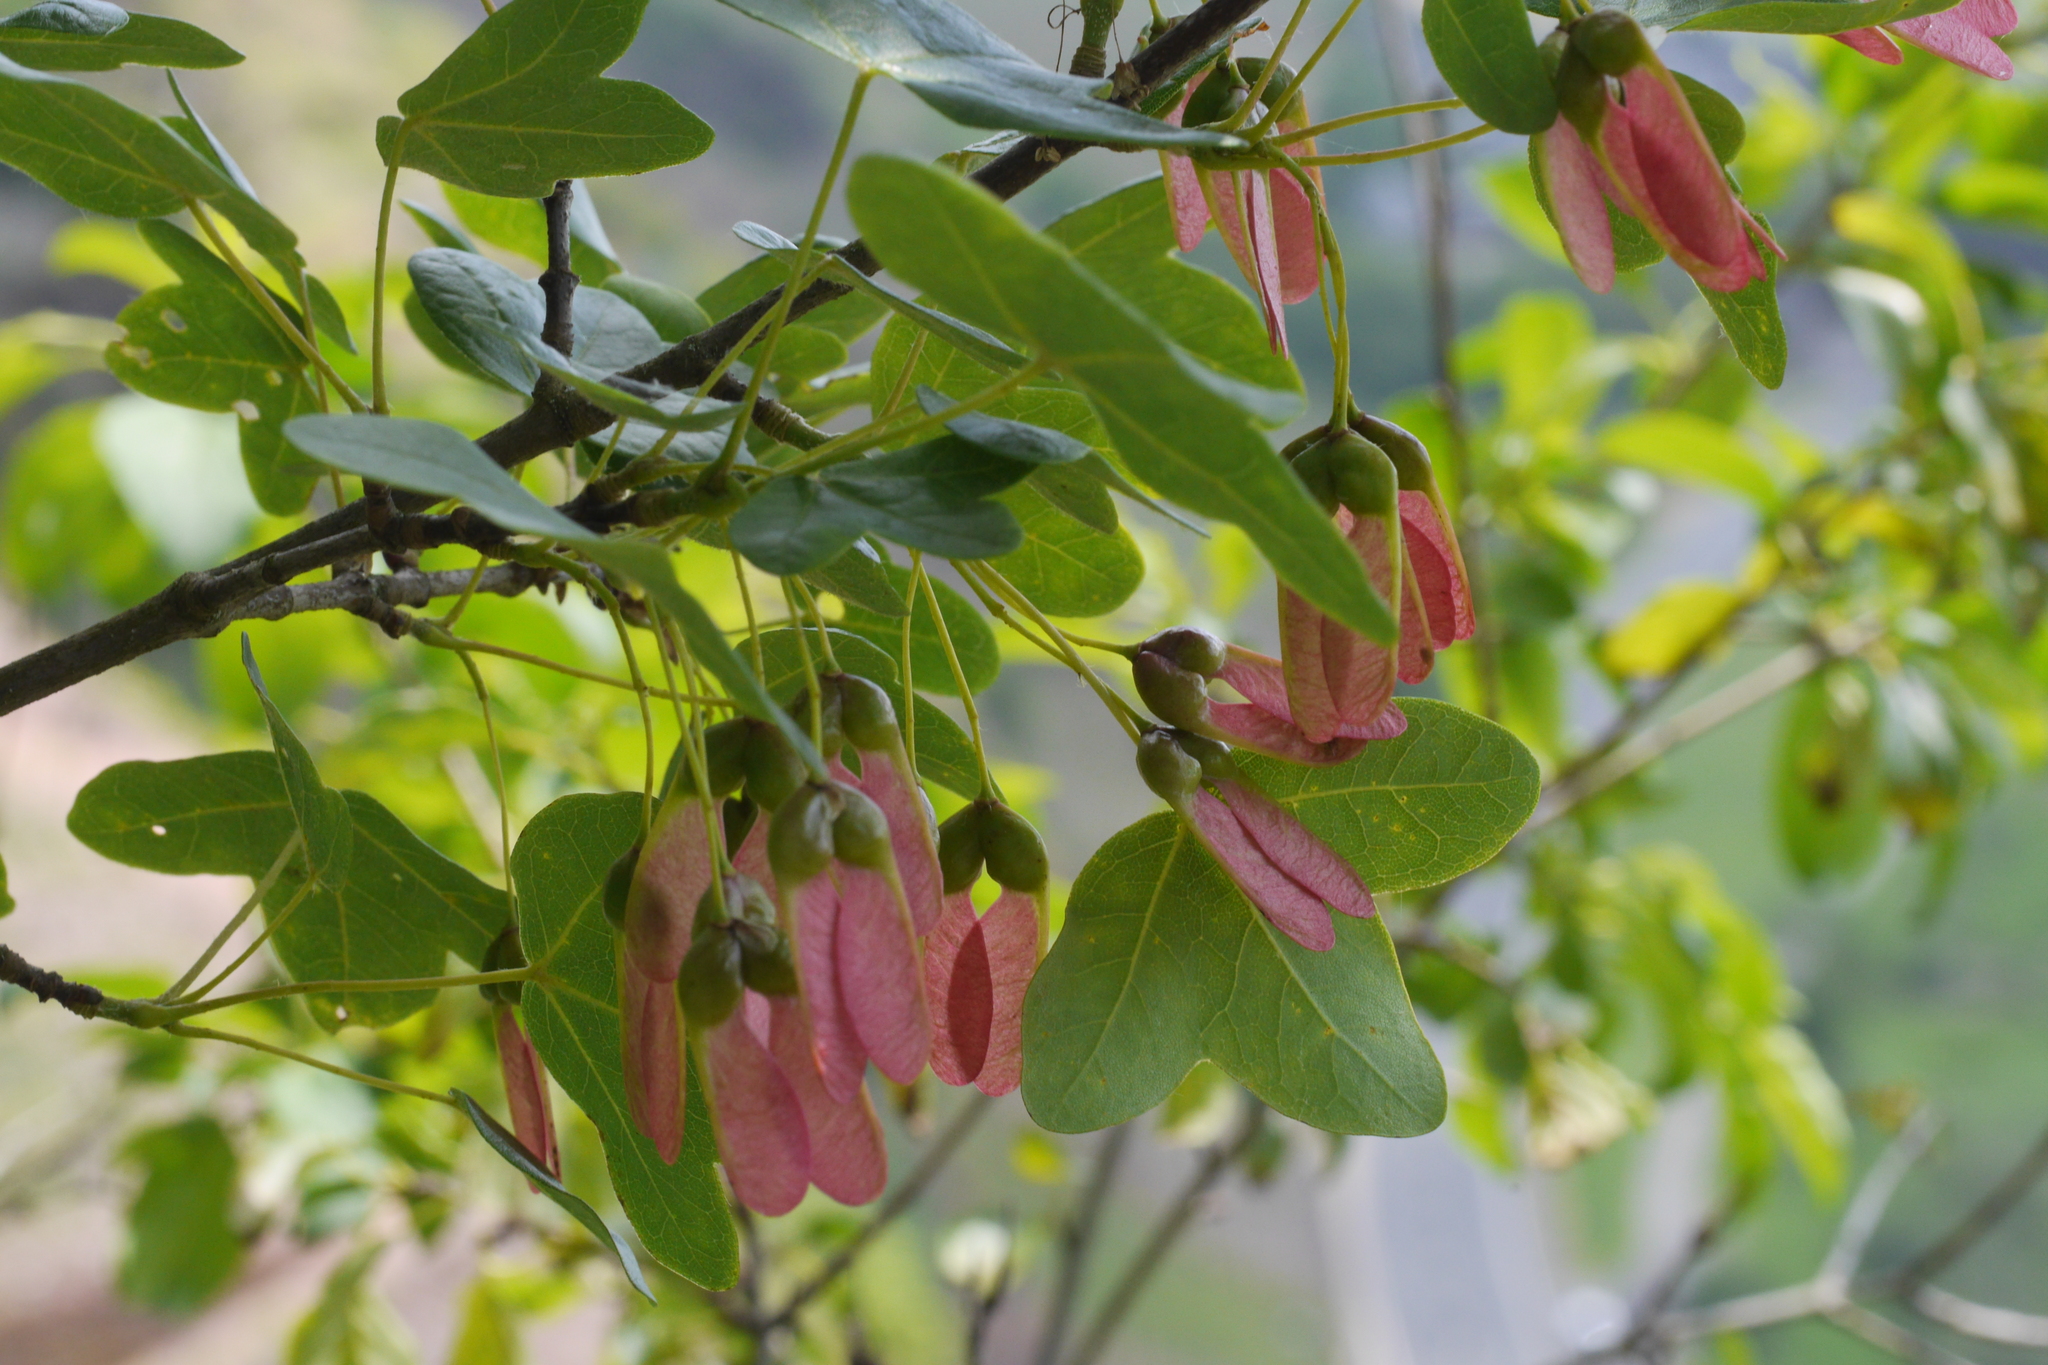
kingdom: Plantae
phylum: Tracheophyta
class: Magnoliopsida
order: Sapindales
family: Sapindaceae
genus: Acer
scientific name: Acer monspessulanum
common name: Montpellier maple
